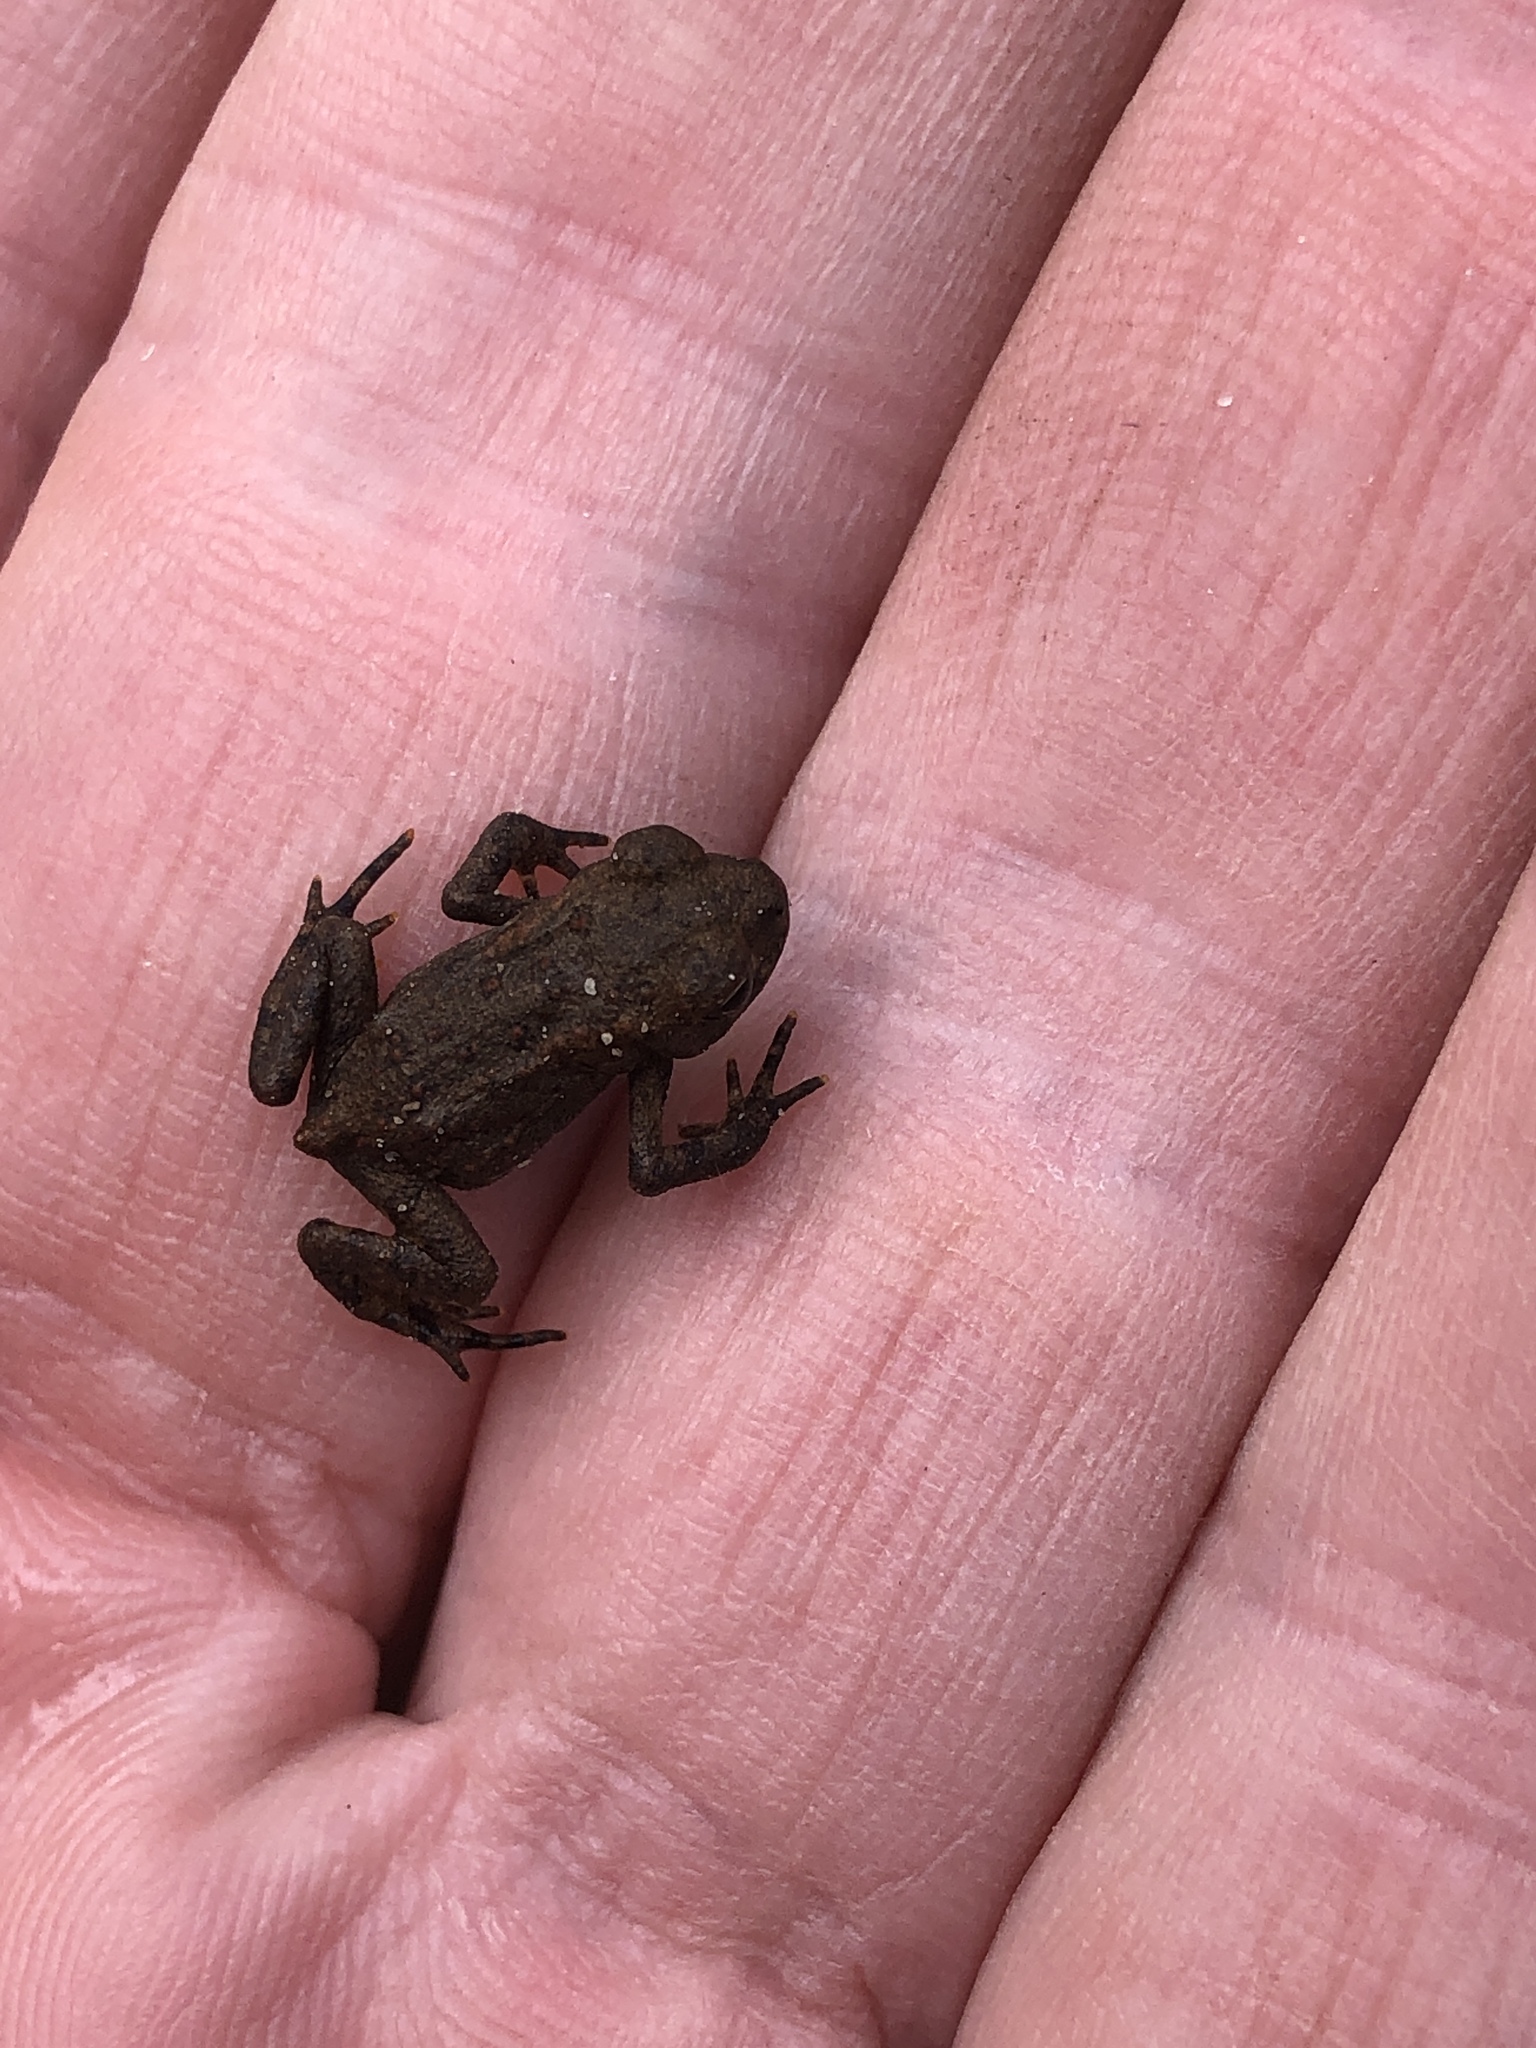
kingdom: Animalia
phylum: Chordata
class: Amphibia
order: Anura
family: Bufonidae
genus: Anaxyrus
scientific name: Anaxyrus americanus
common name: American toad
